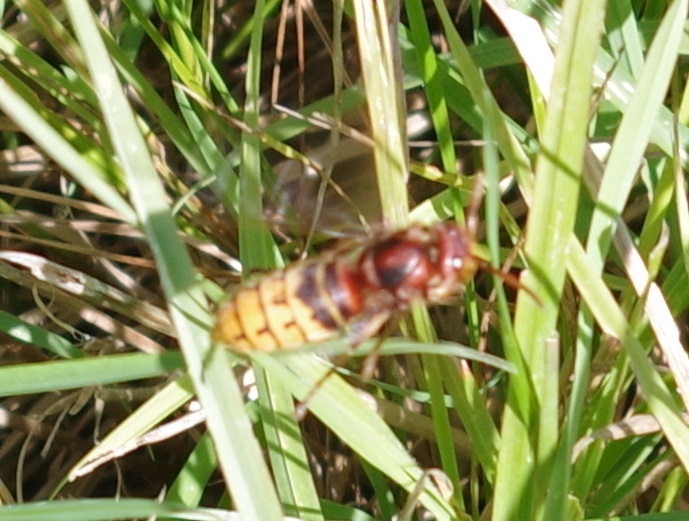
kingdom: Animalia
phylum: Arthropoda
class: Insecta
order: Hymenoptera
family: Vespidae
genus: Vespa
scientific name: Vespa crabro
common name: Hornet
